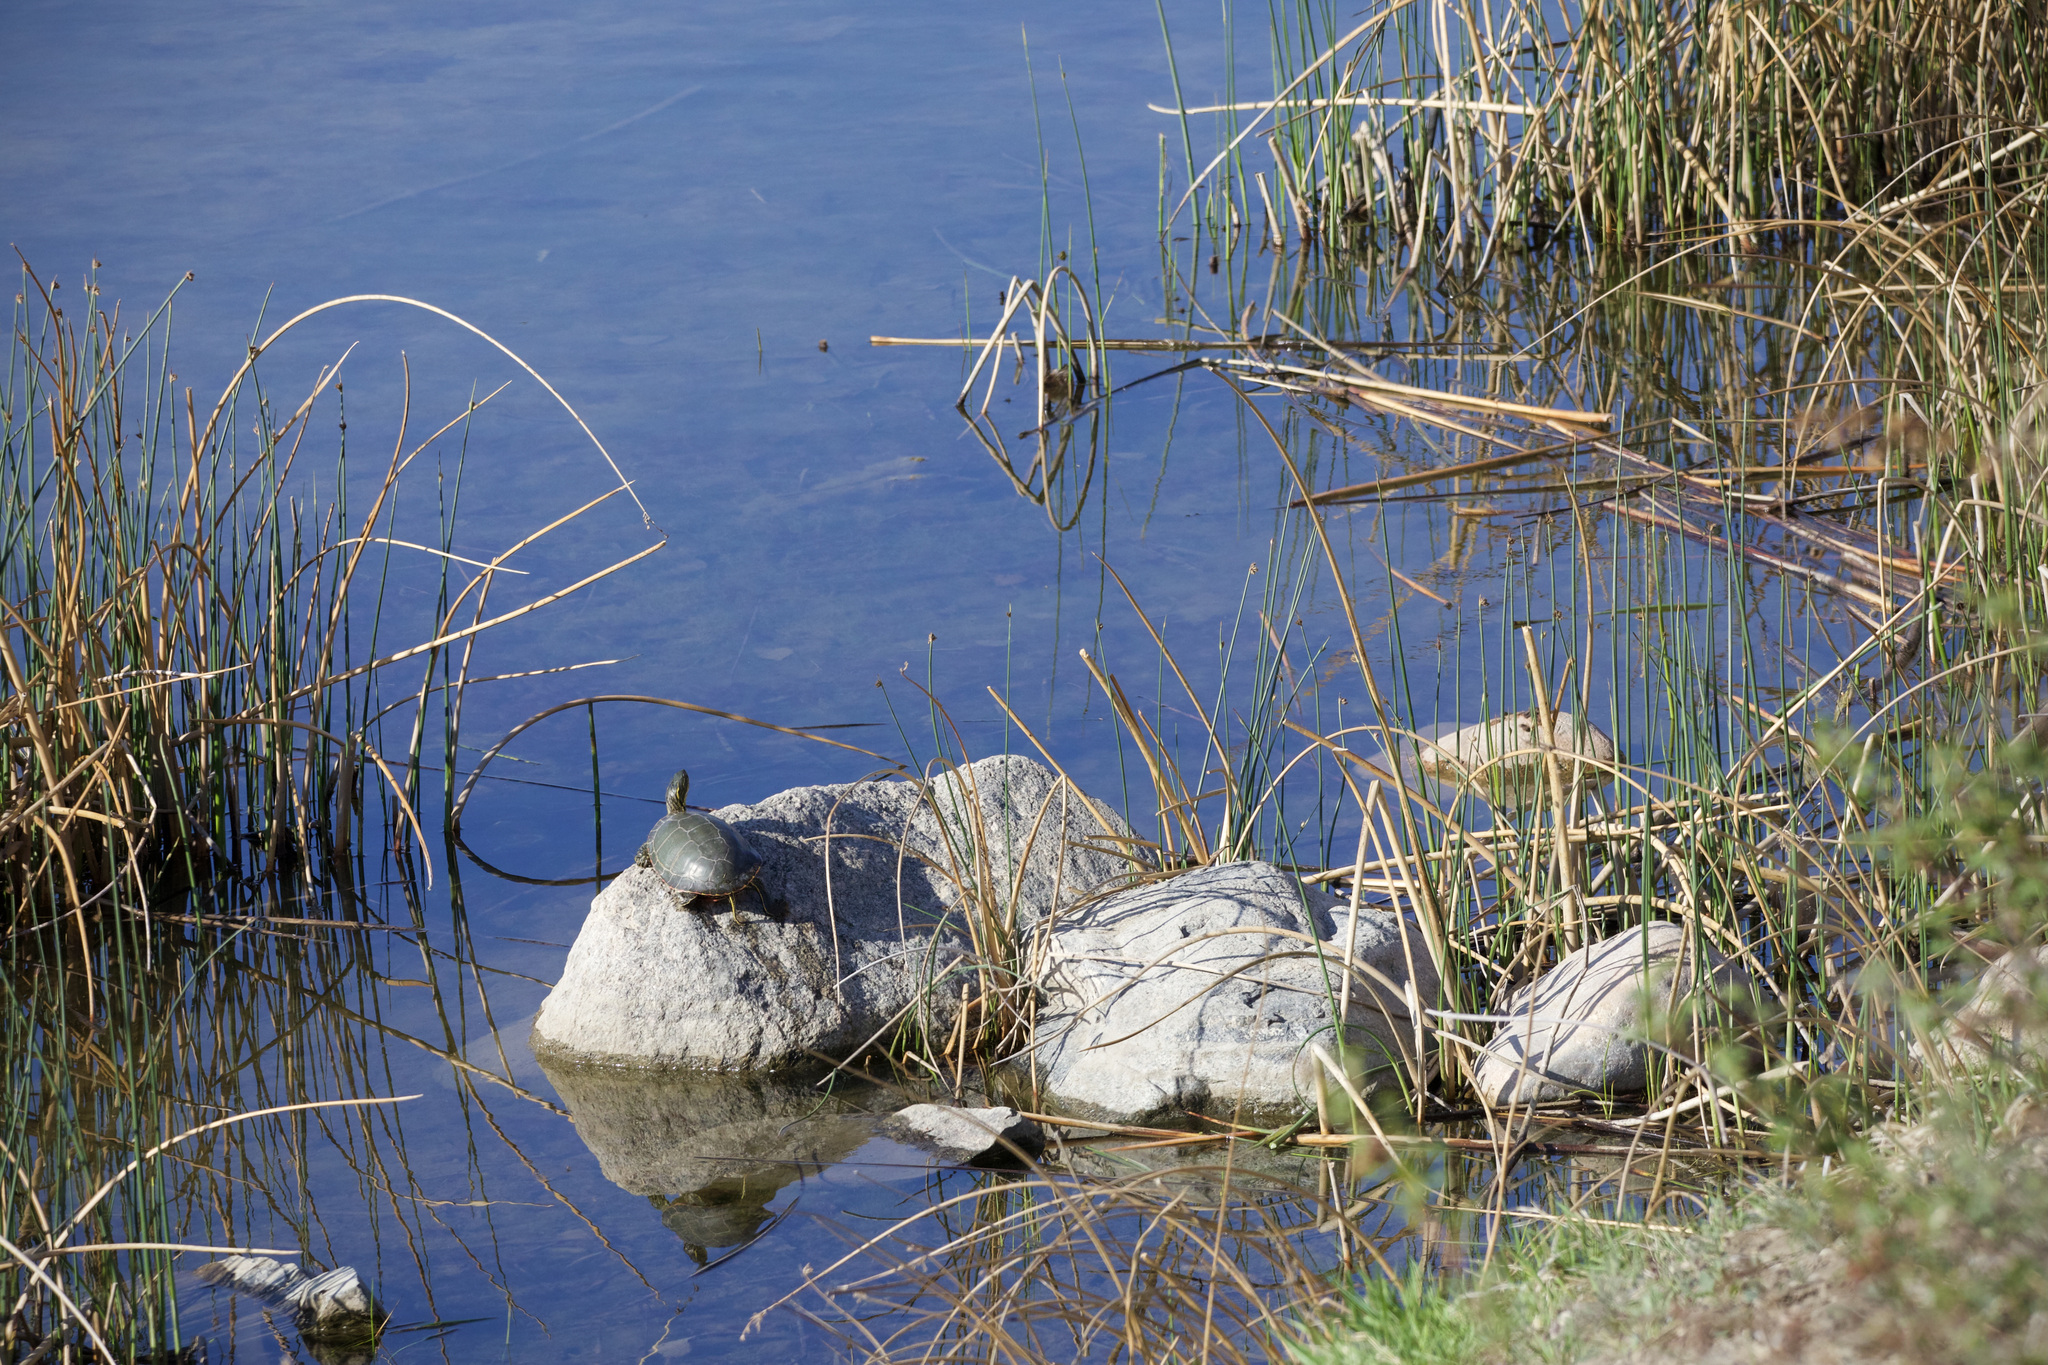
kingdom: Animalia
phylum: Chordata
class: Testudines
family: Emydidae
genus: Chrysemys
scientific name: Chrysemys picta
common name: Painted turtle
